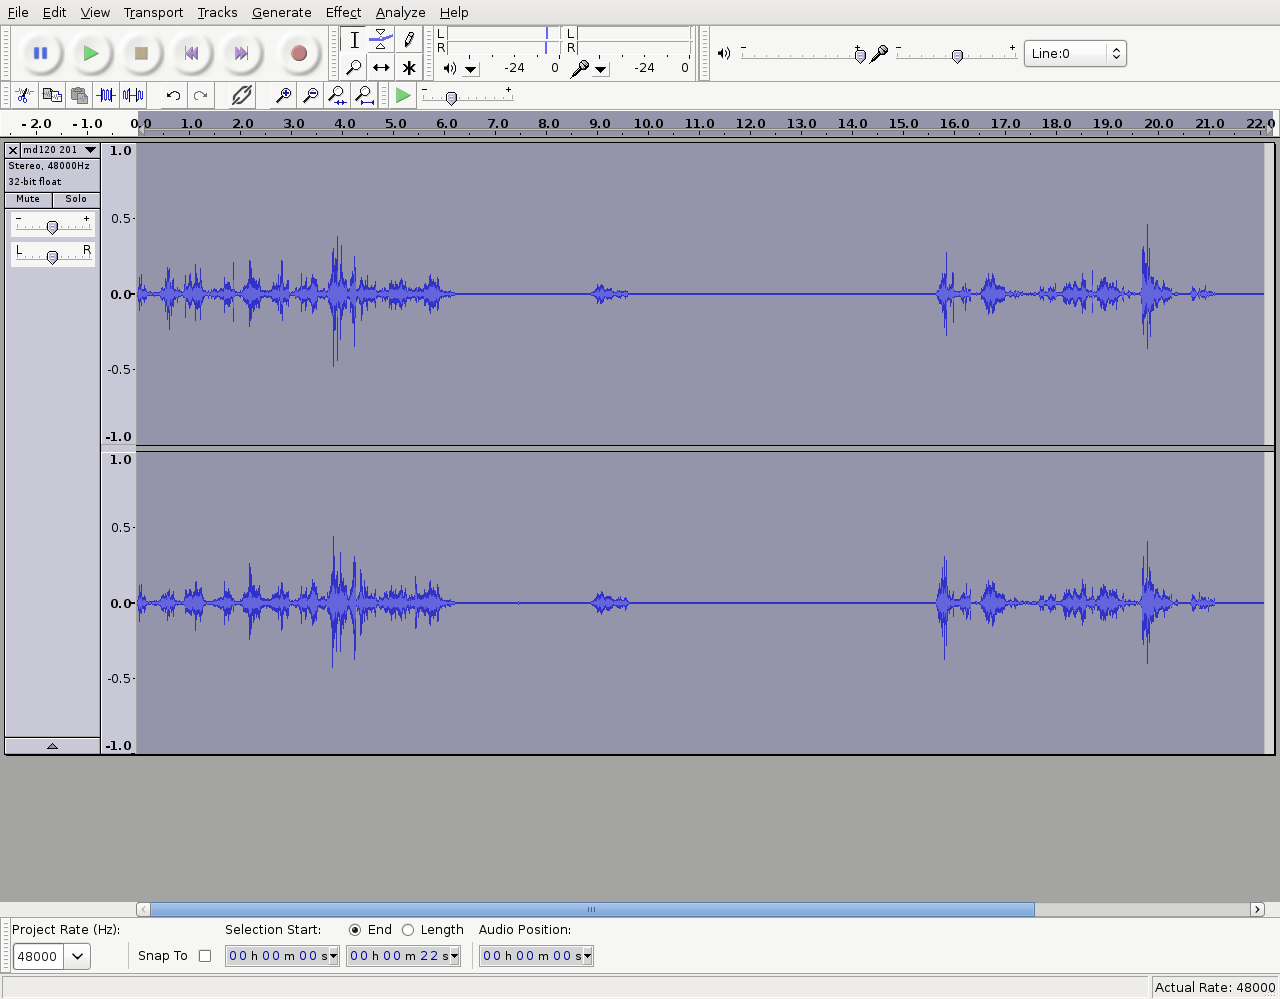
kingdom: Animalia
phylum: Chordata
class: Aves
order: Cuculiformes
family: Cuculidae
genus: Chrysococcyx
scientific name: Chrysococcyx lucidus
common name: Shining bronze cuckoo
